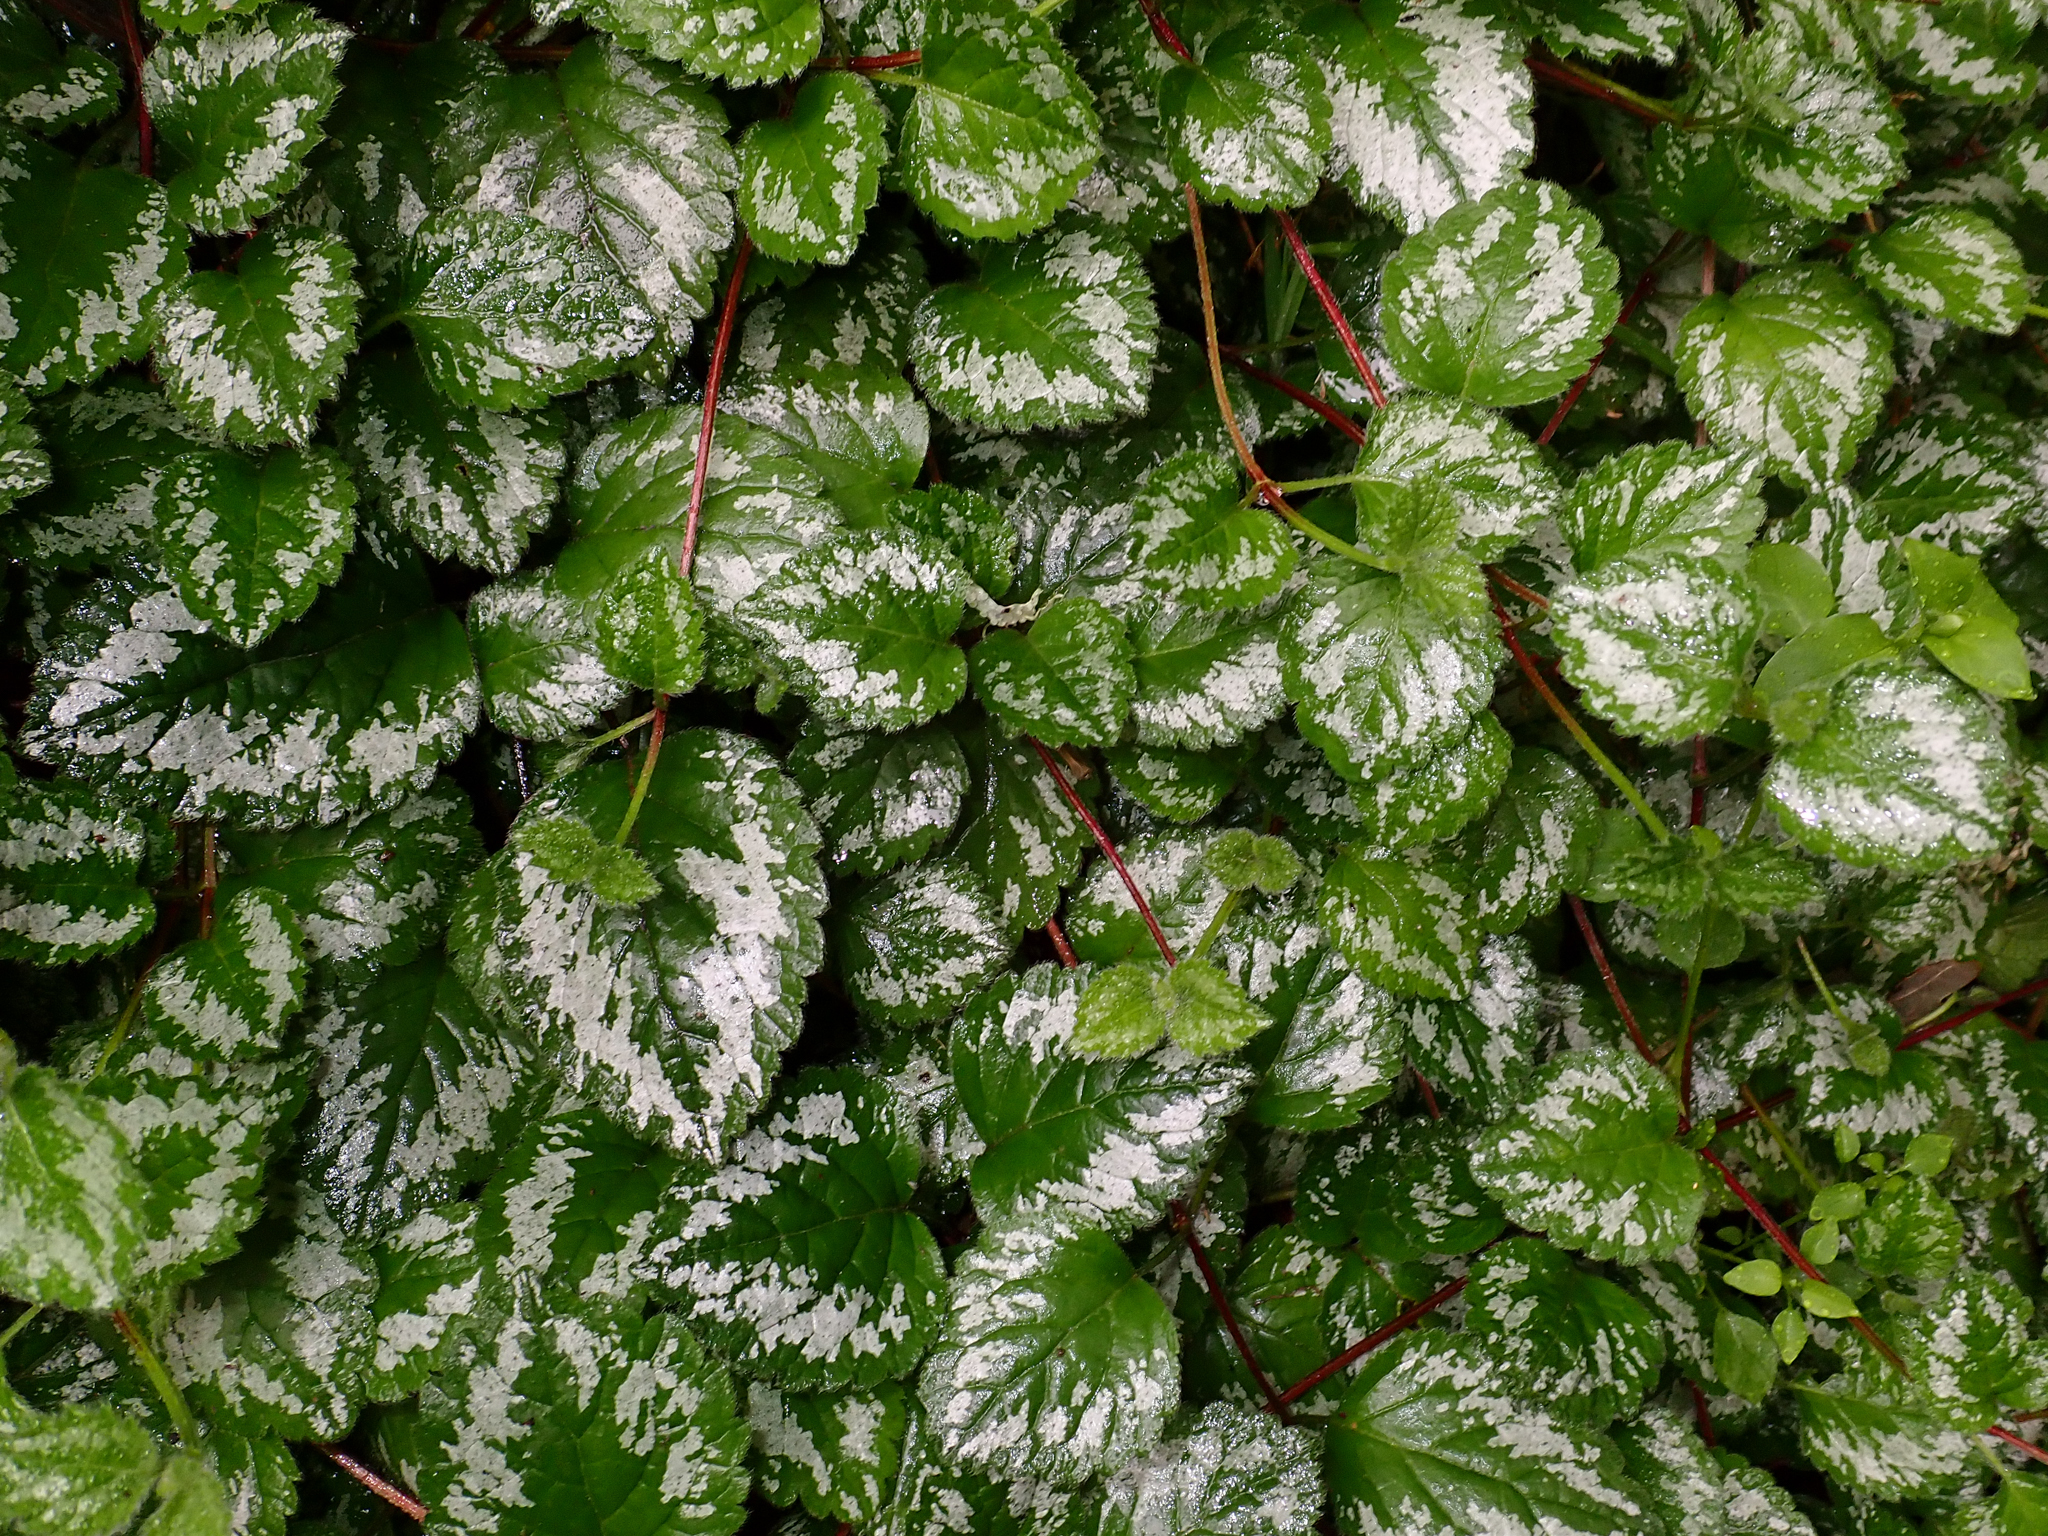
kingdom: Plantae
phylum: Tracheophyta
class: Magnoliopsida
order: Lamiales
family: Lamiaceae
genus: Lamium
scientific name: Lamium galeobdolon
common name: Yellow archangel
